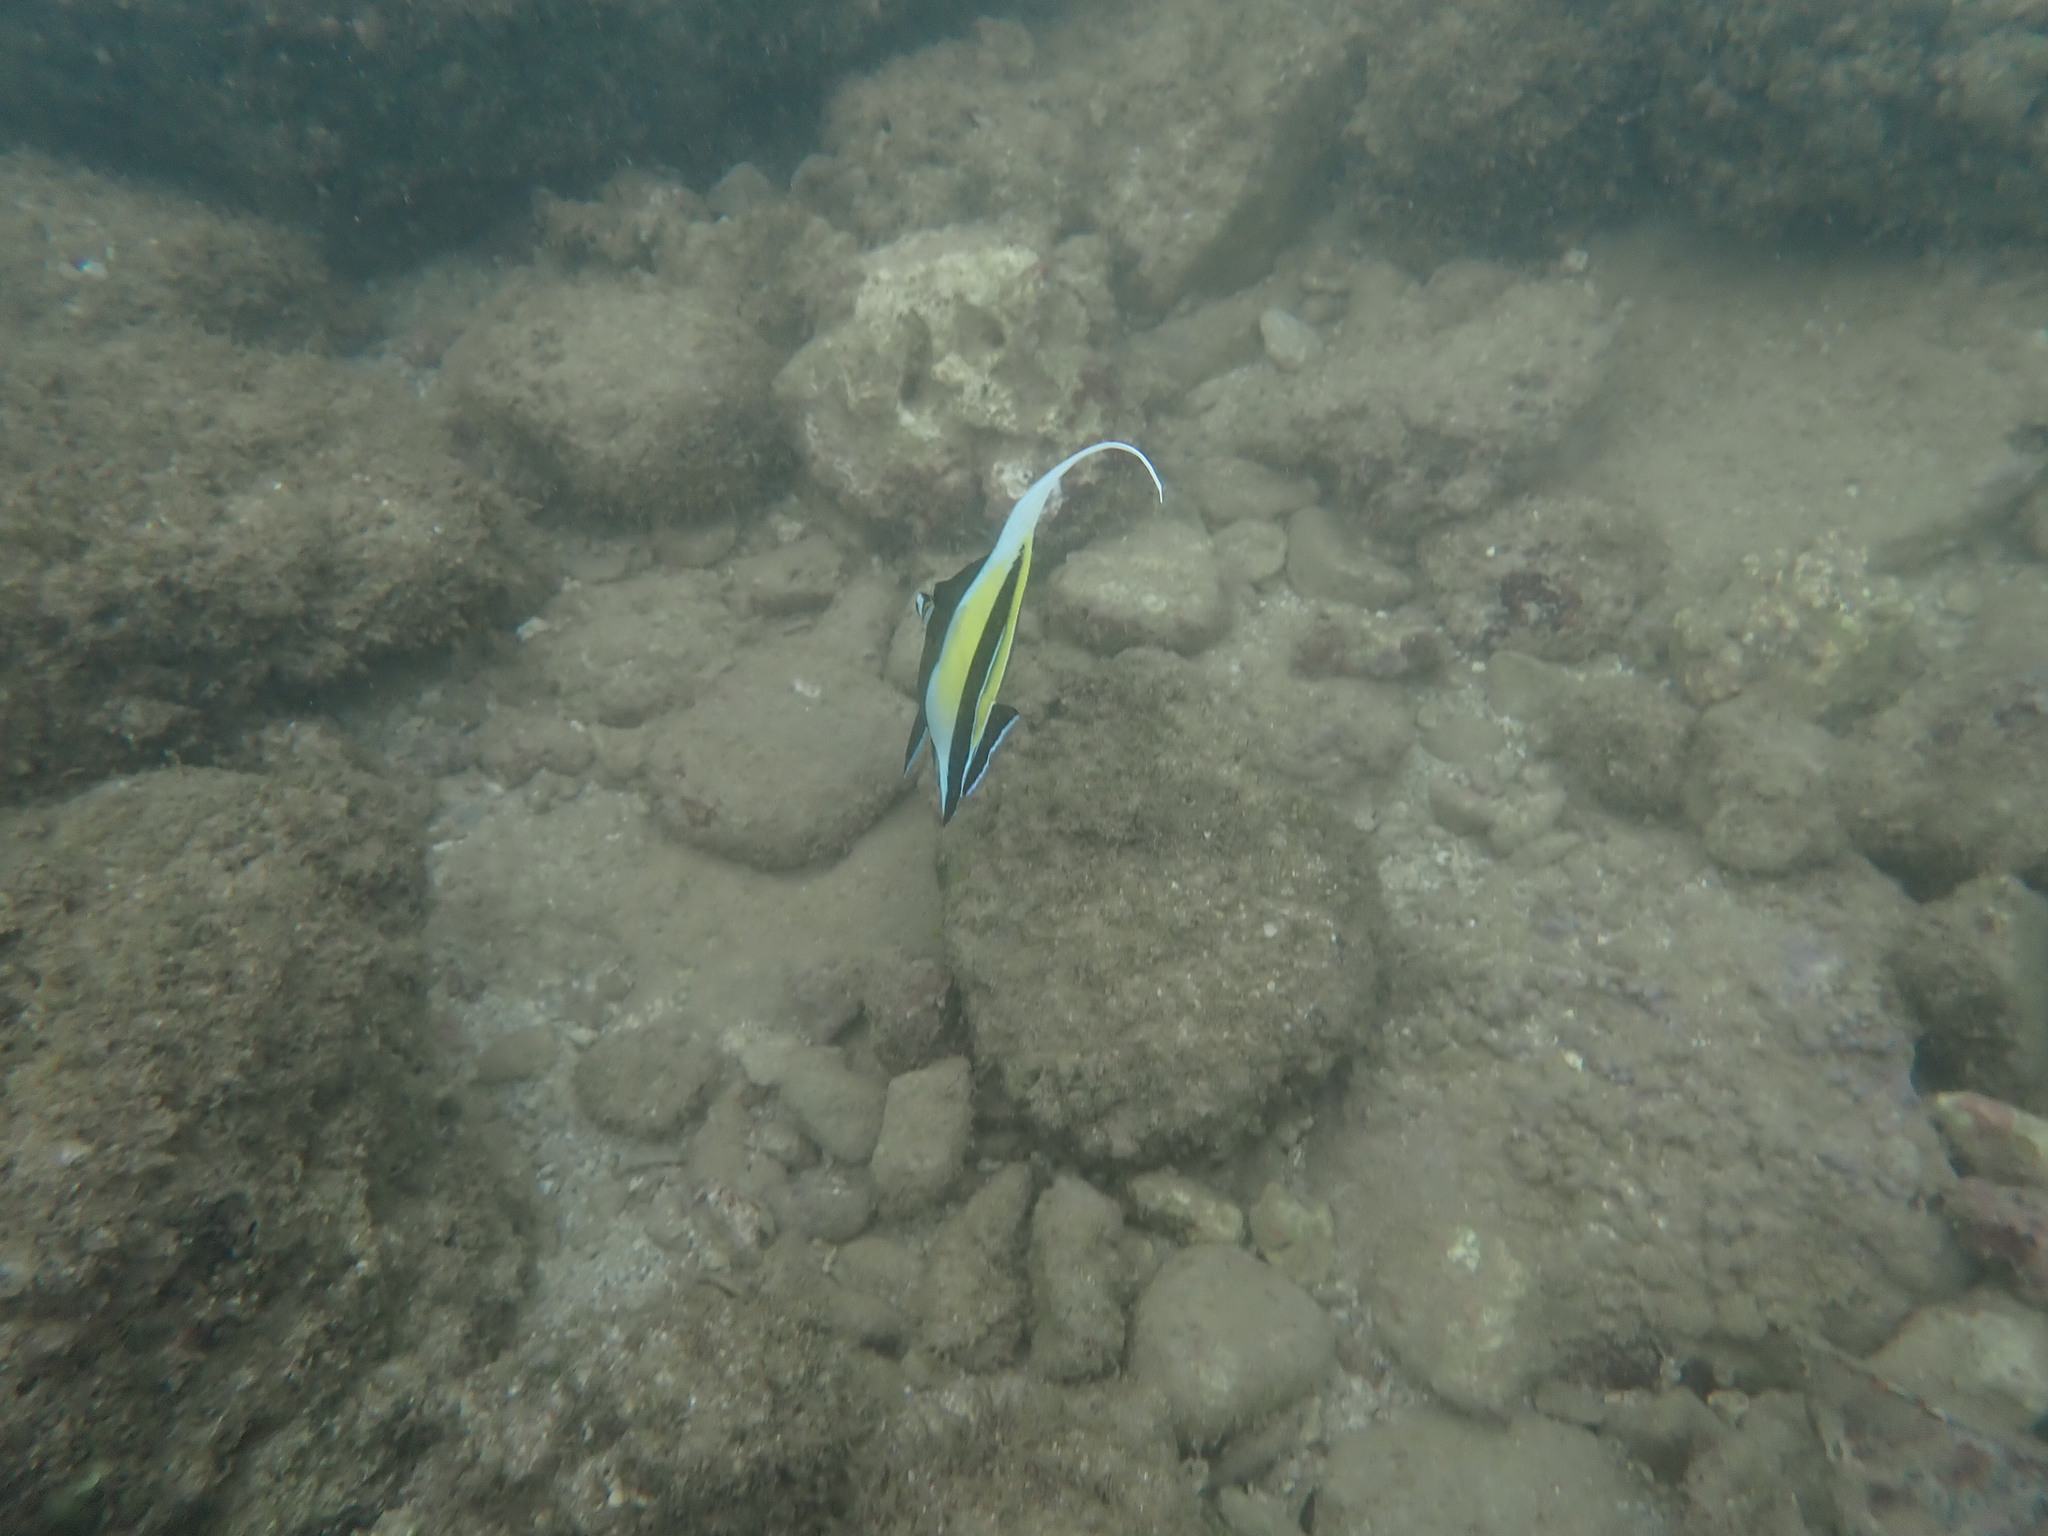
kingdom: Animalia
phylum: Chordata
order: Perciformes
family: Zanclidae
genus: Zanclus
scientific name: Zanclus cornutus
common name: Moorish idol
